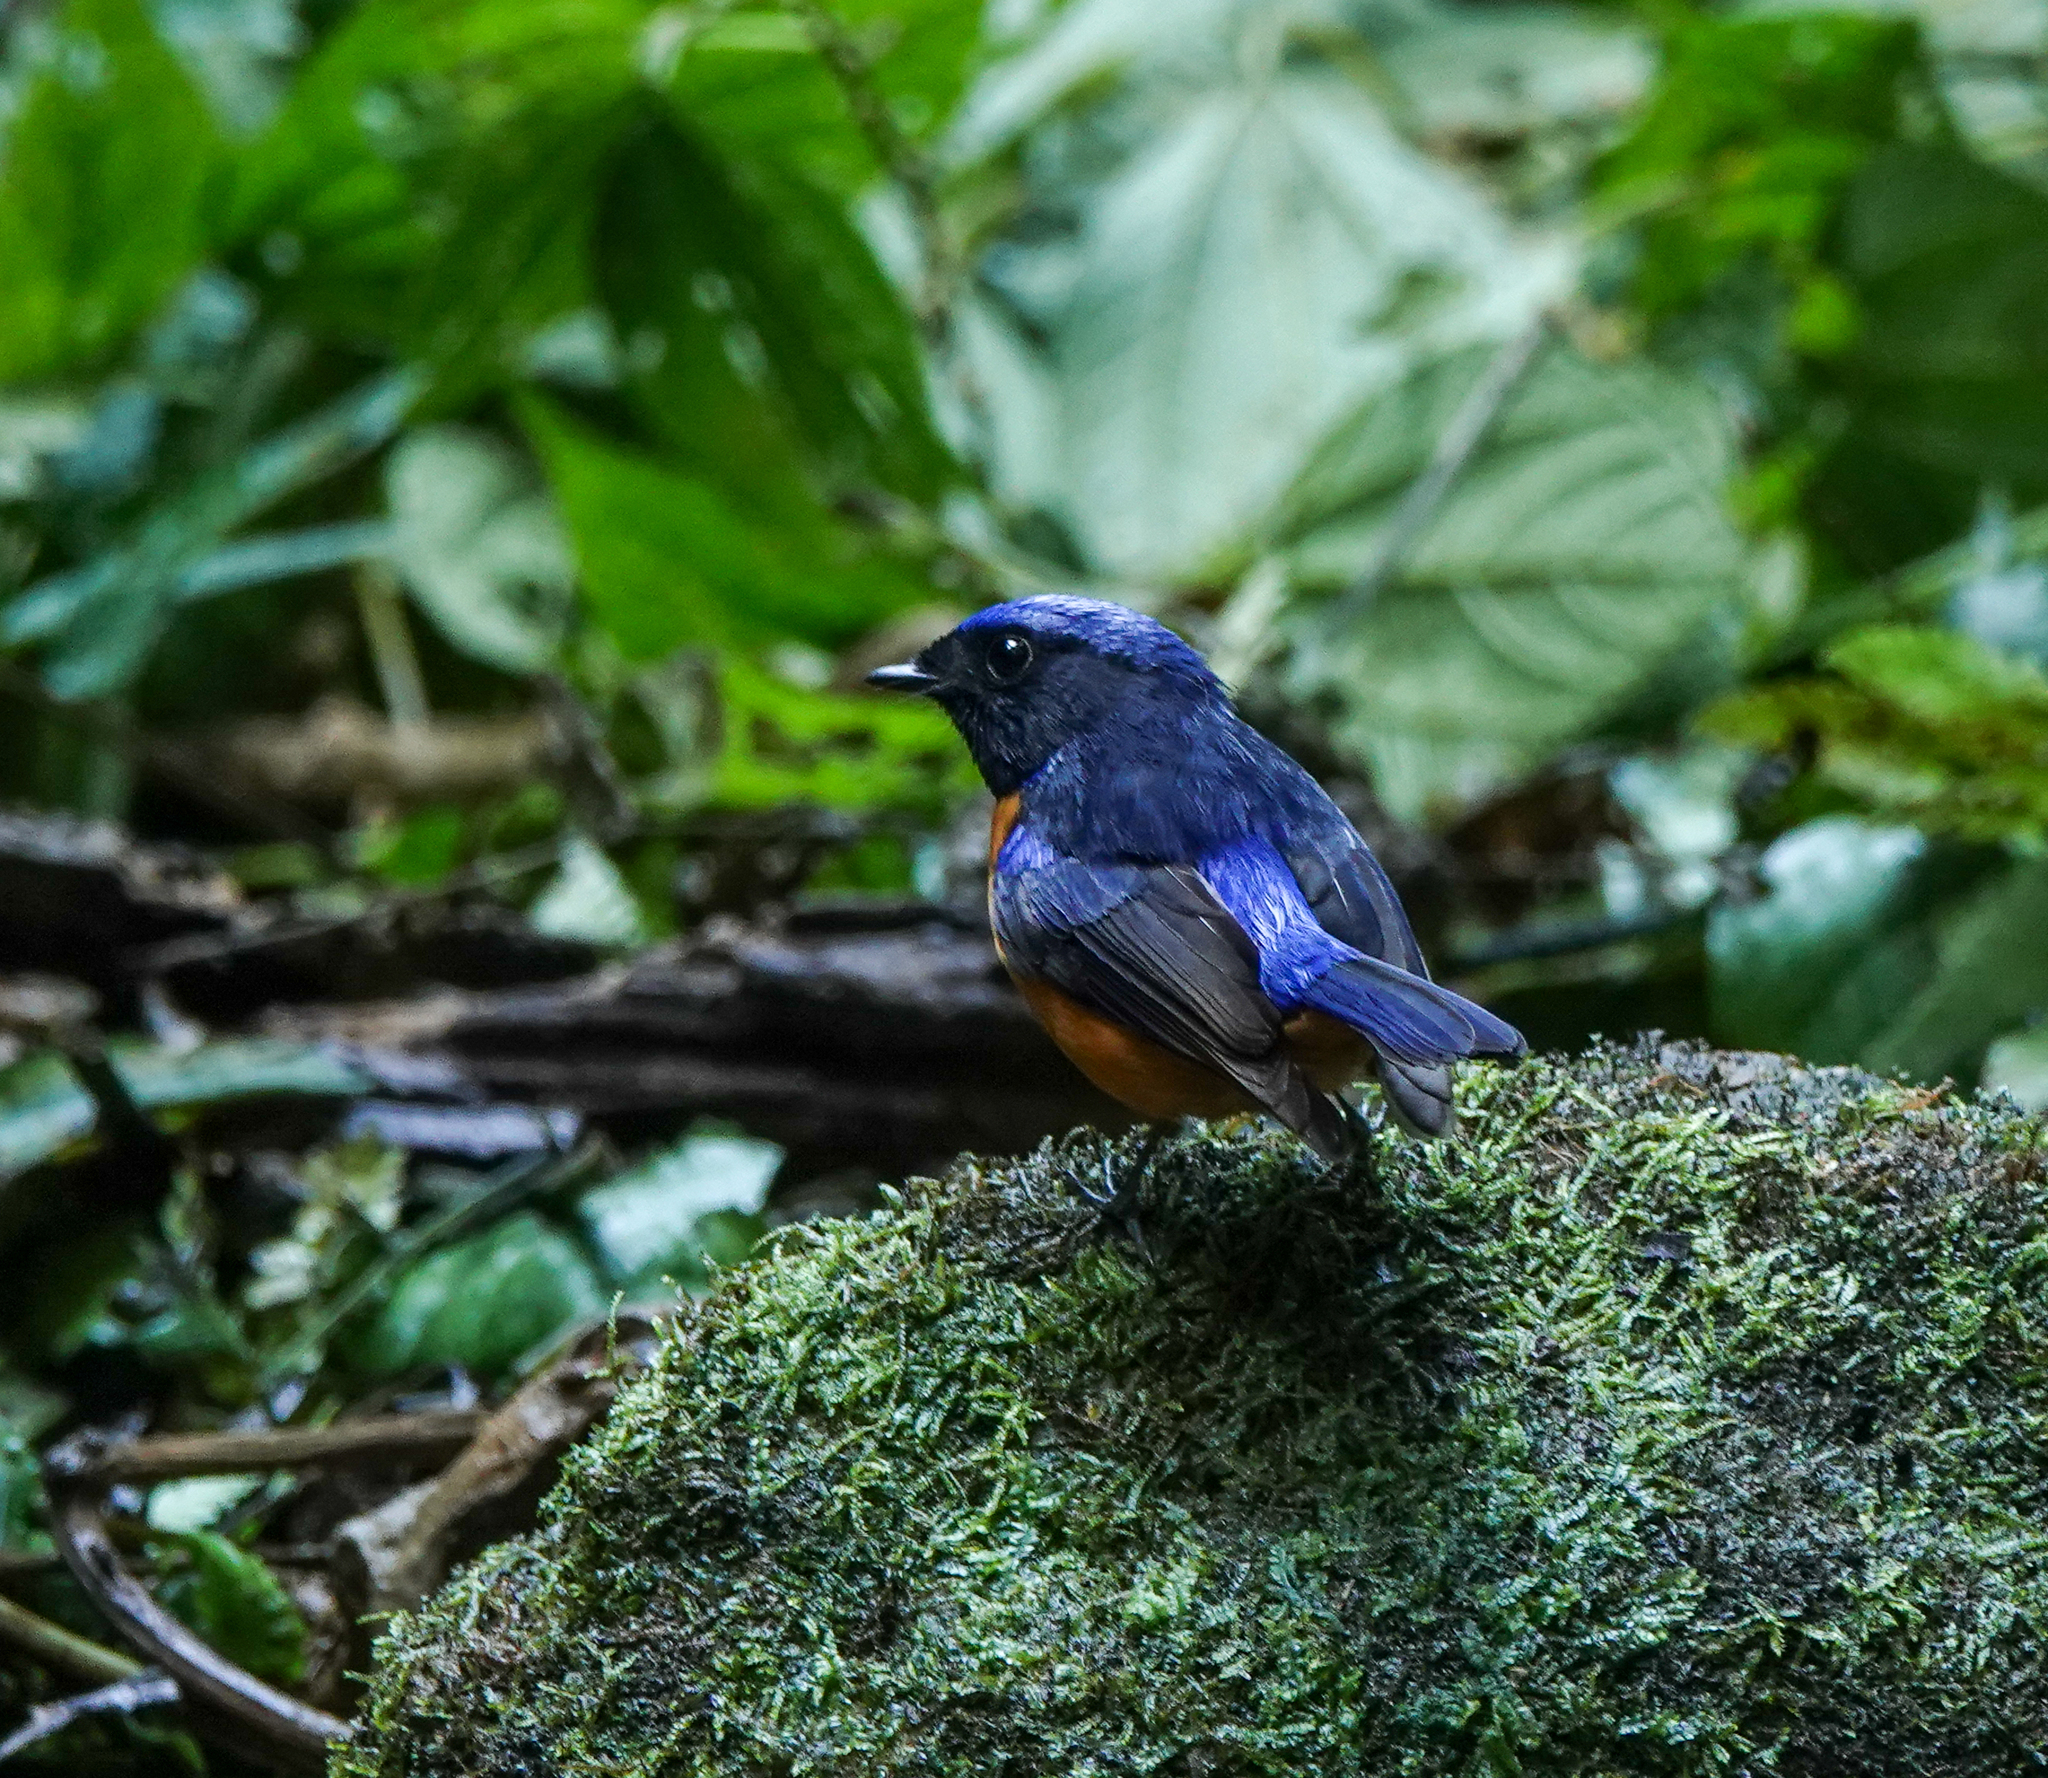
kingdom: Animalia
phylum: Chordata
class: Aves
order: Passeriformes
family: Muscicapidae
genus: Niltava
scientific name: Niltava sundara
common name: Rufous-bellied niltava
